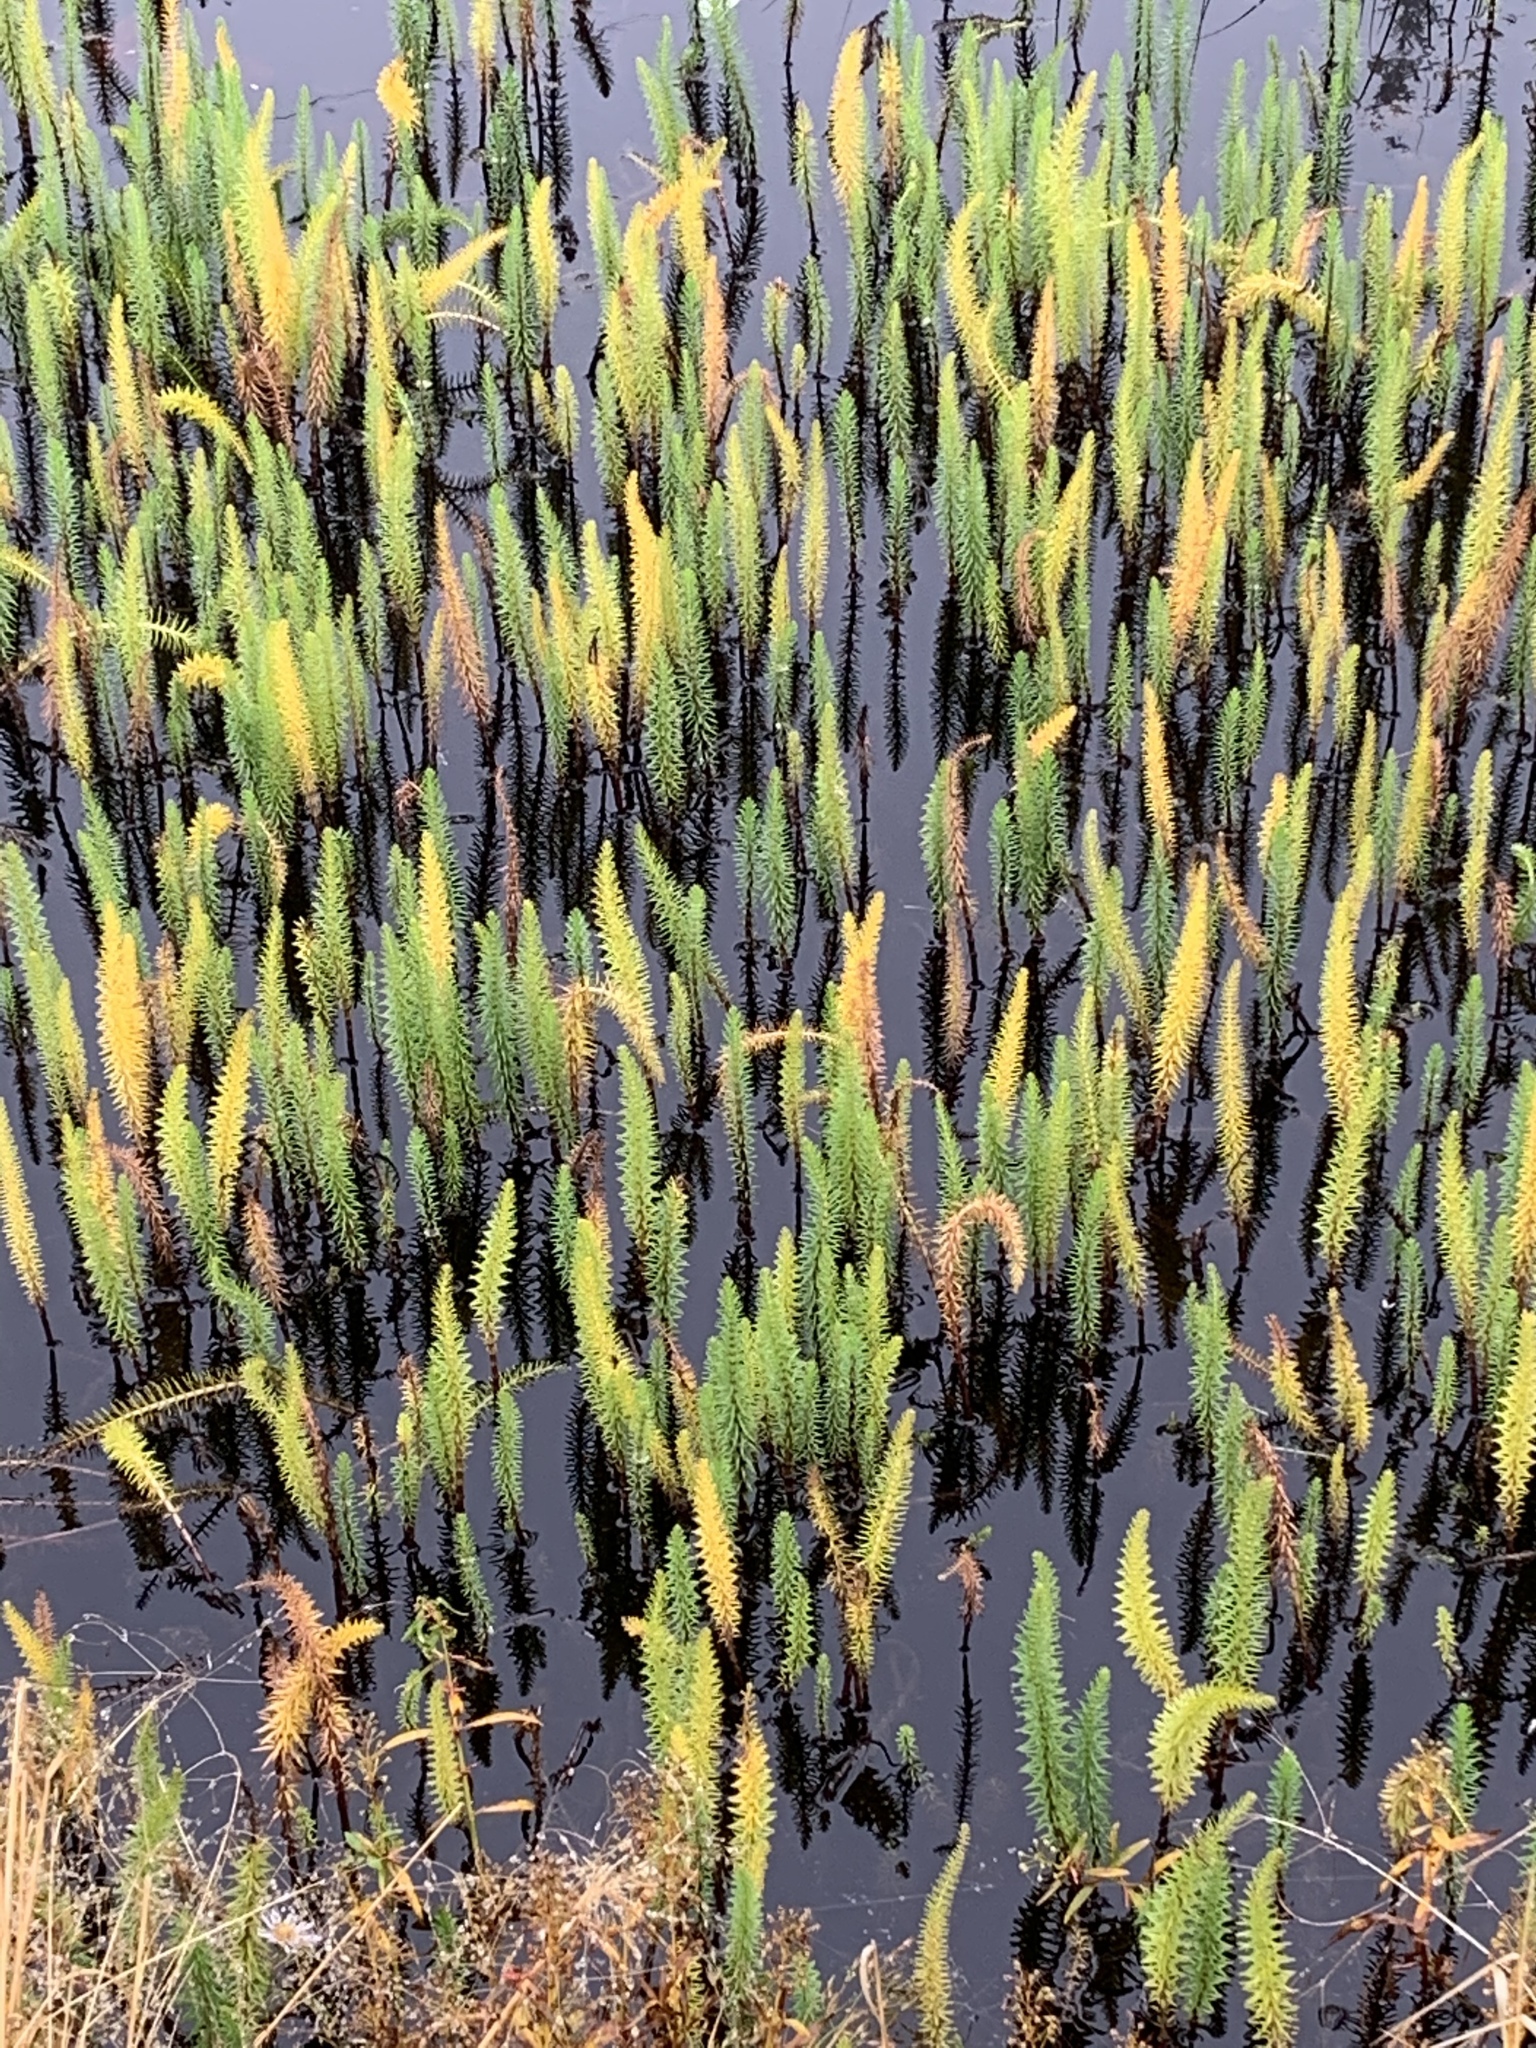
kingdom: Plantae
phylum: Tracheophyta
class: Magnoliopsida
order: Lamiales
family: Plantaginaceae
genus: Hippuris
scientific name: Hippuris vulgaris
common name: Mare's-tail
